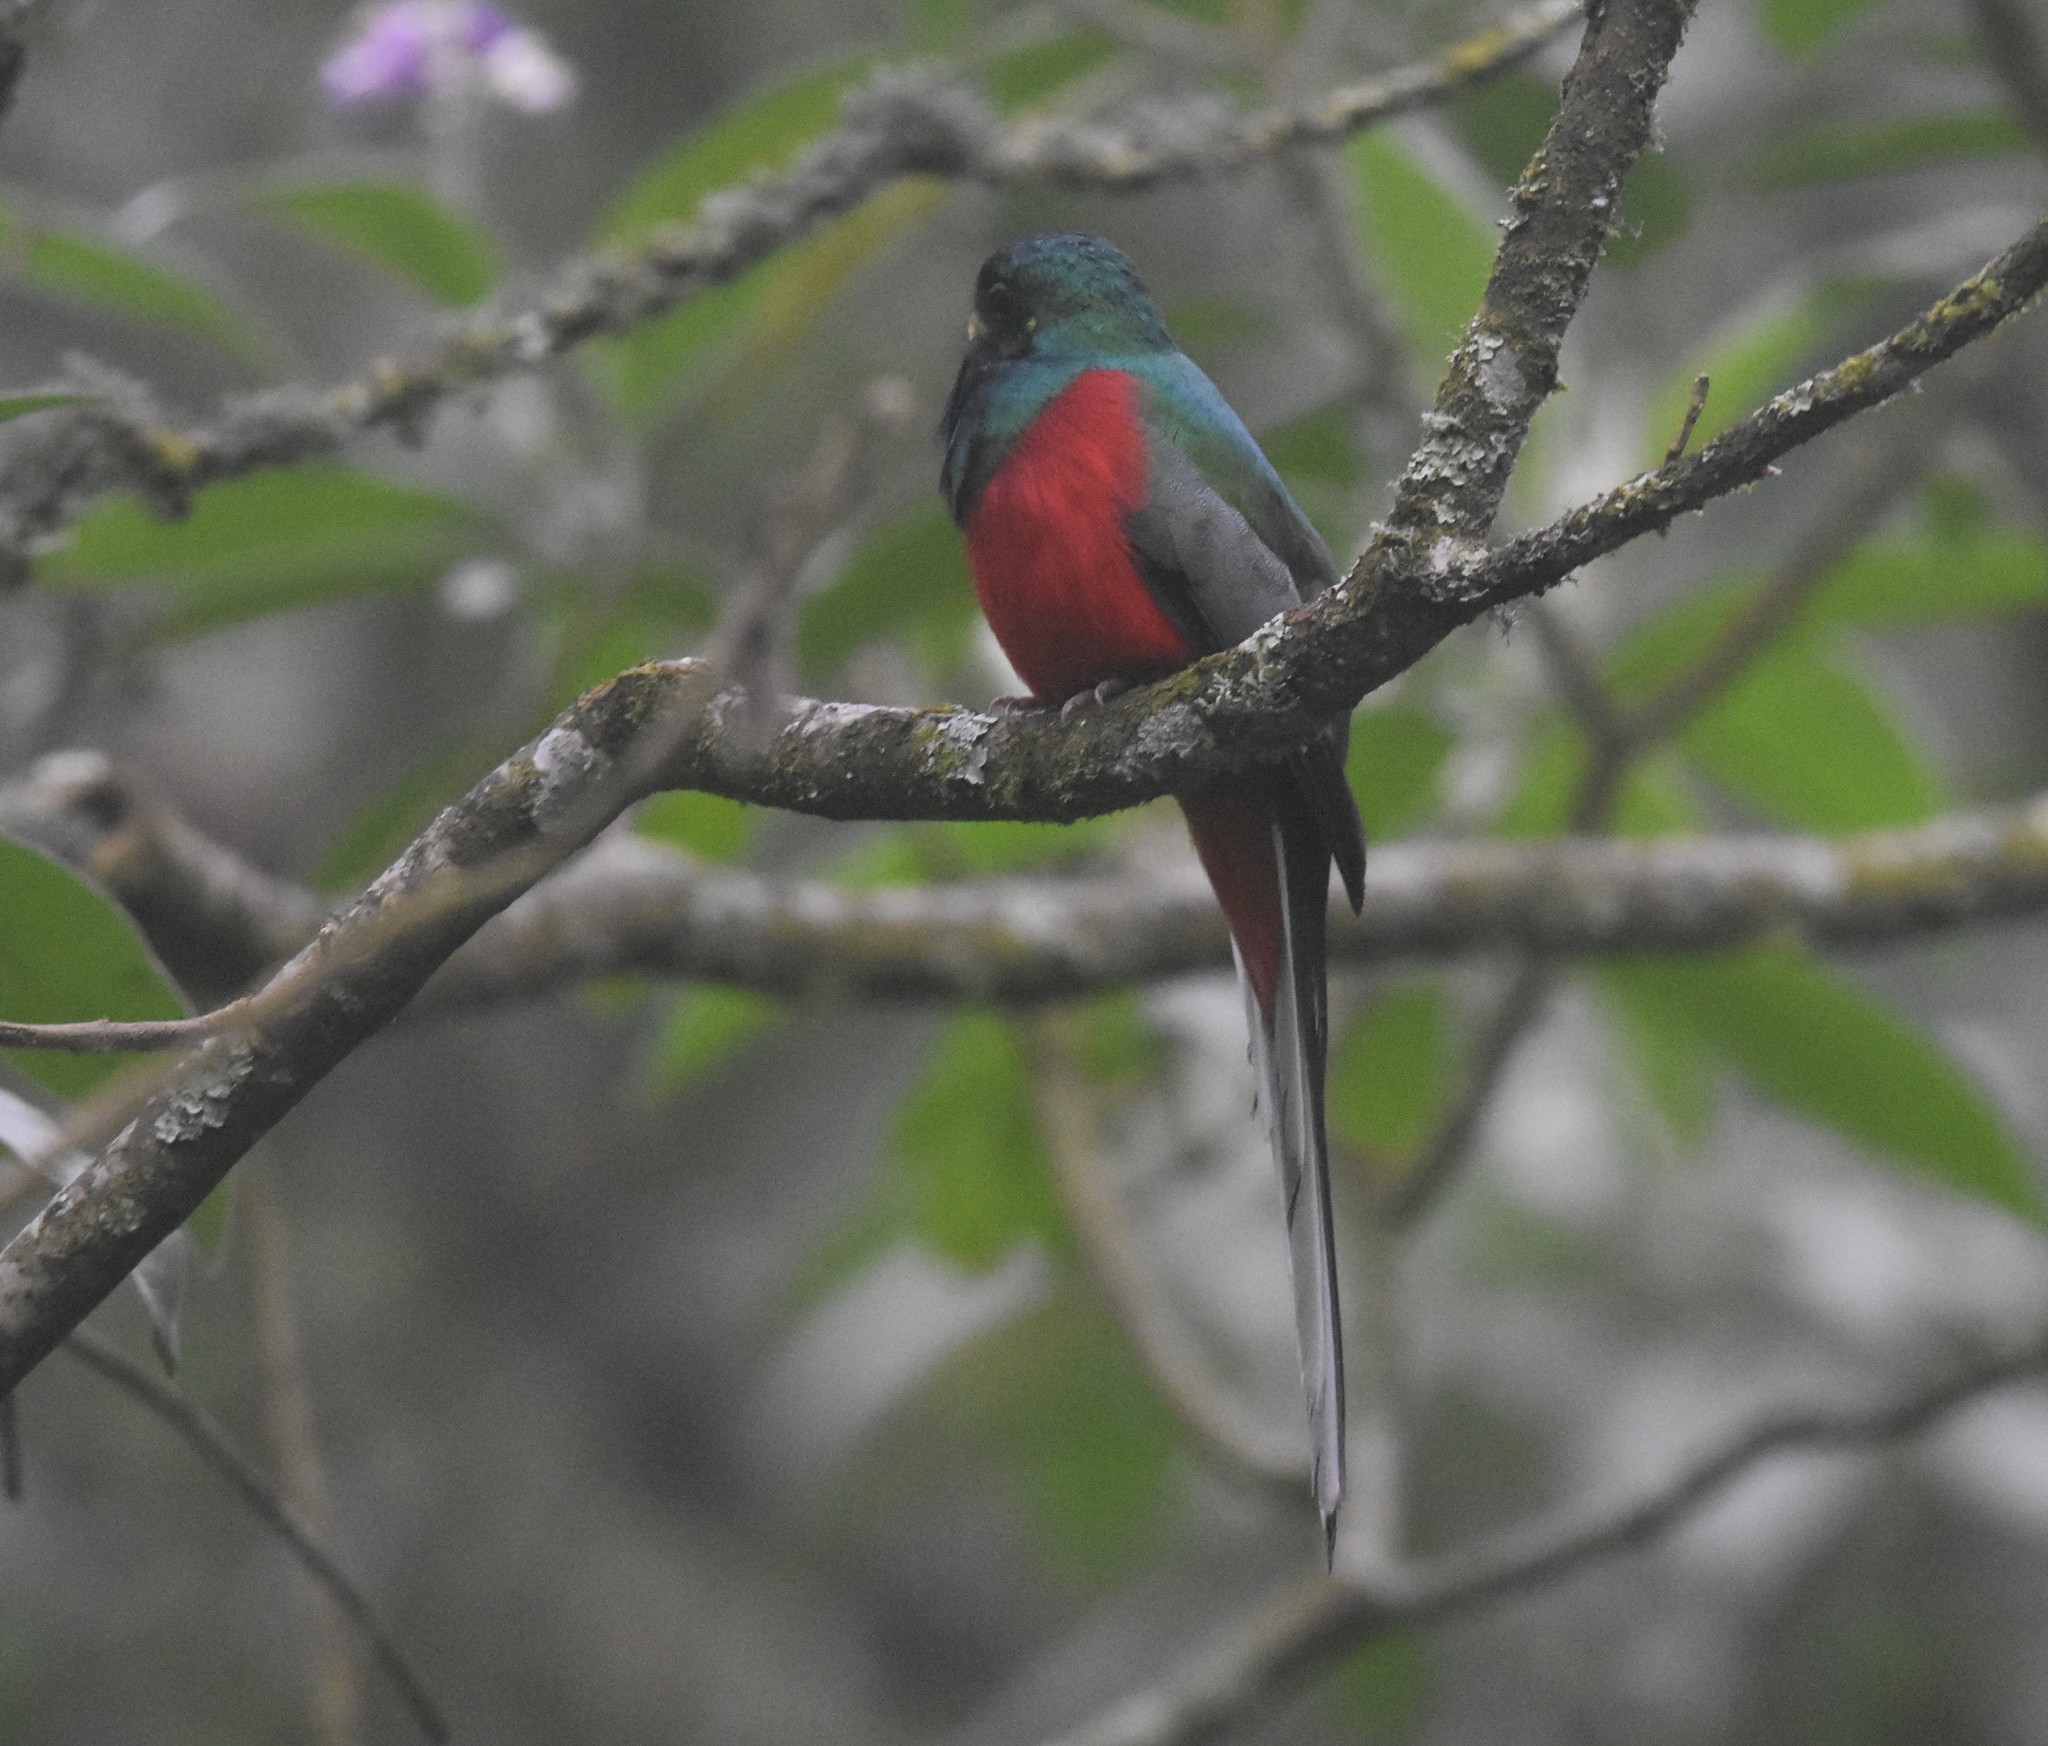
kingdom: Animalia
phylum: Chordata
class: Aves
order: Trogoniformes
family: Trogonidae
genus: Apaloderma
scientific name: Apaloderma narina
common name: Narina trogon
